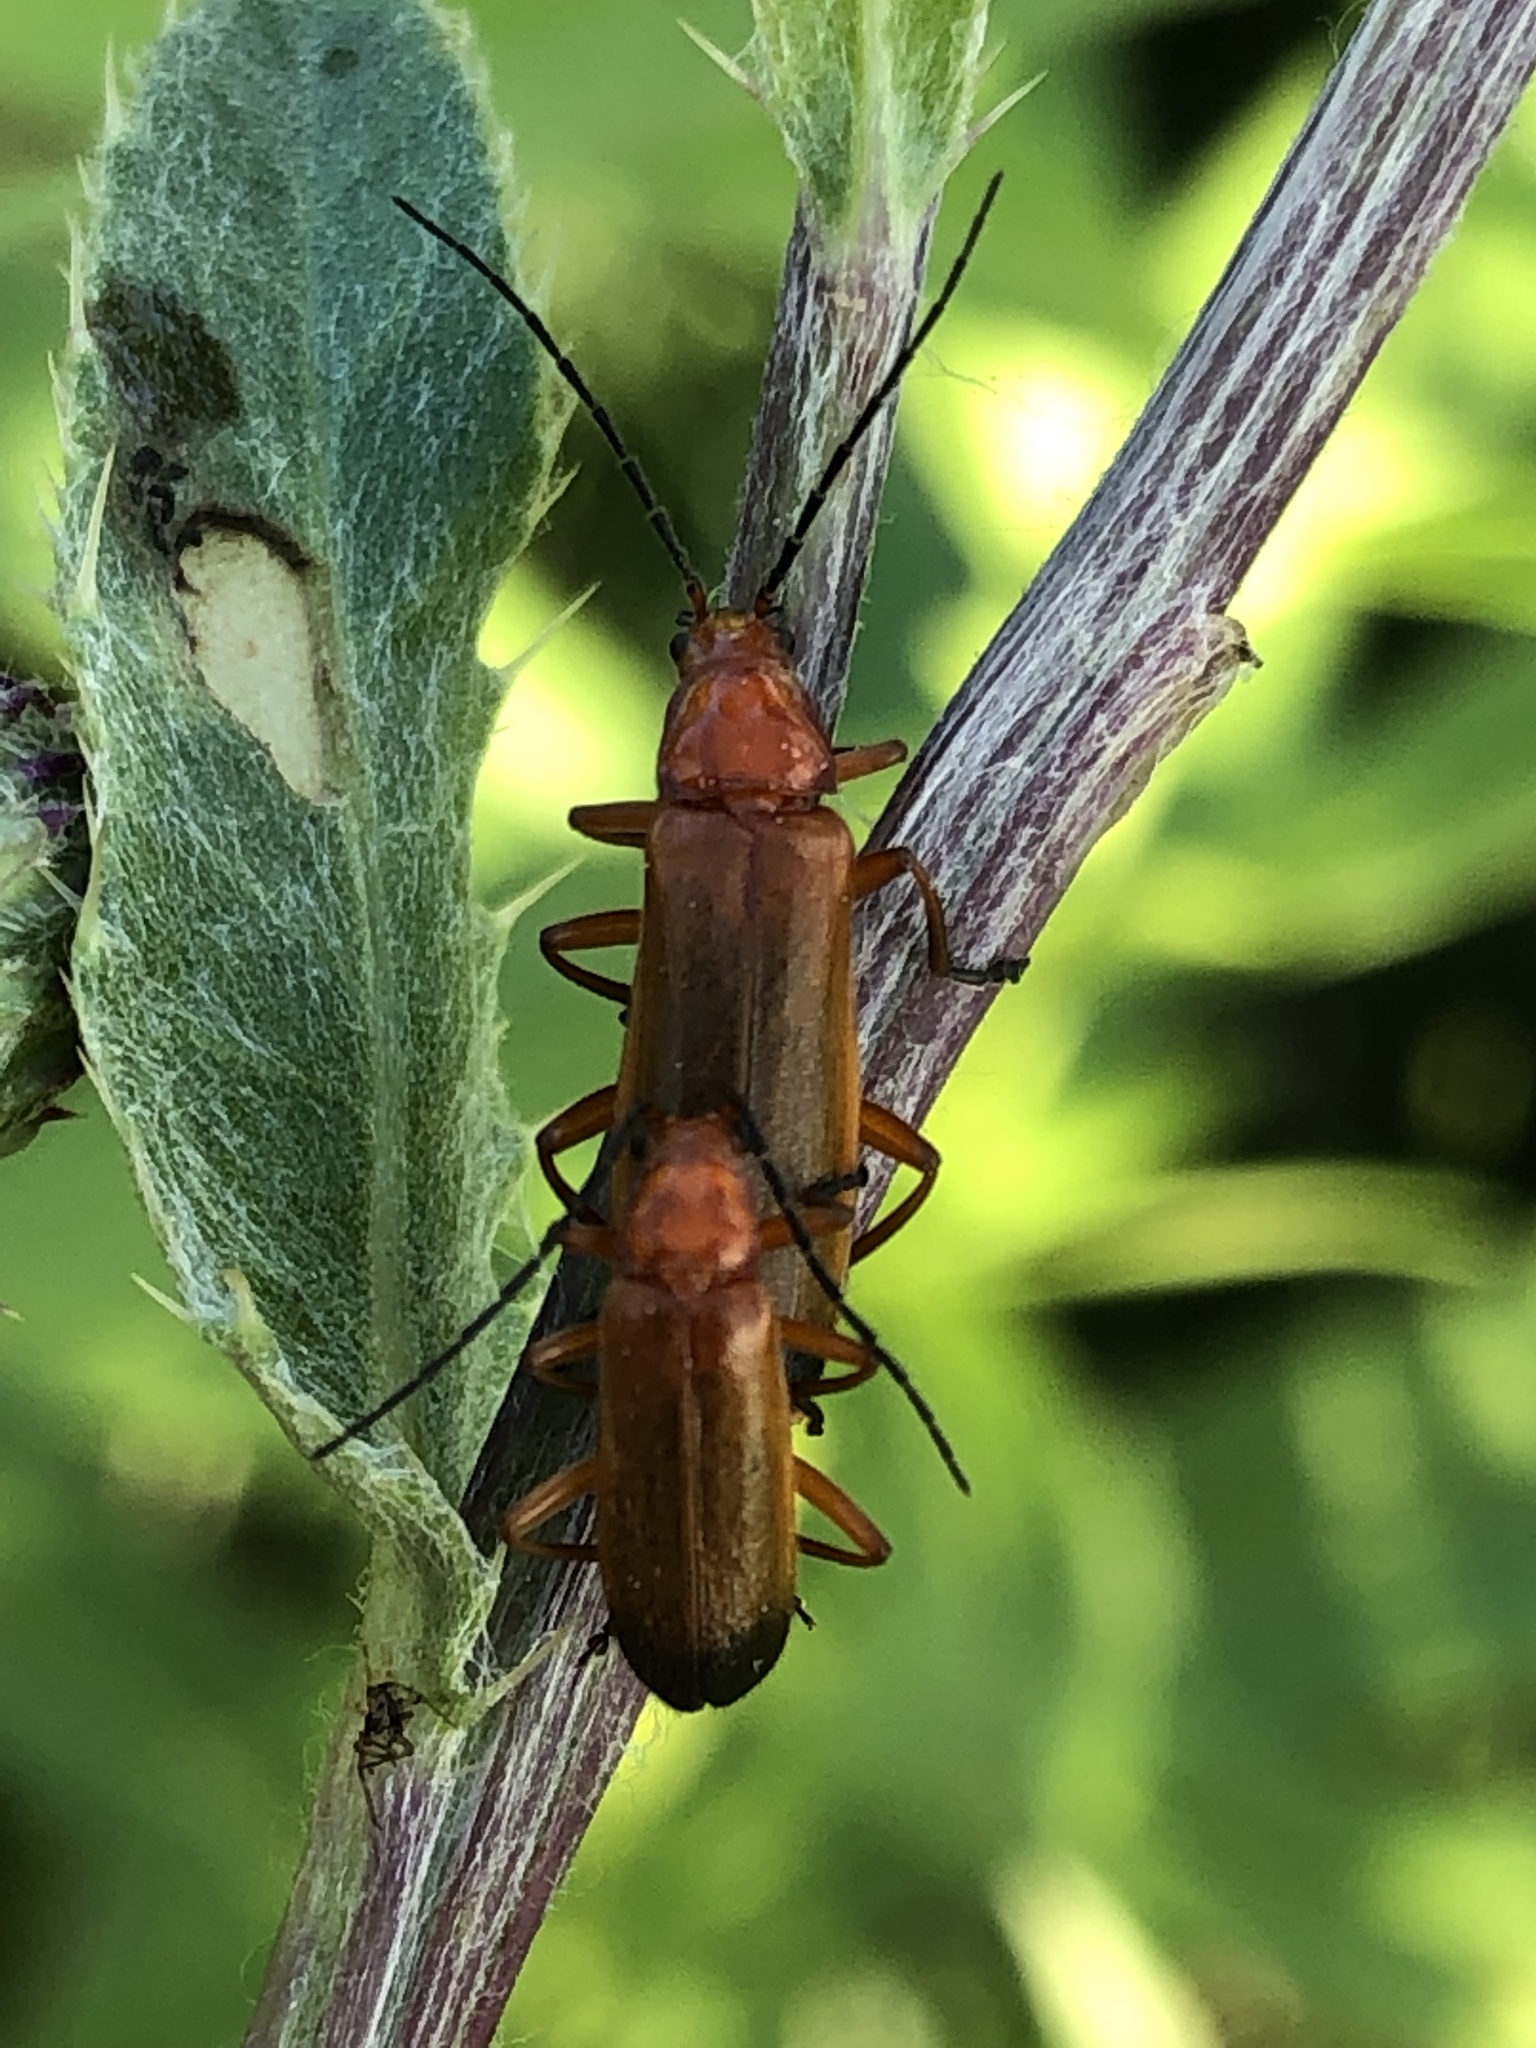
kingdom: Animalia
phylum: Arthropoda
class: Insecta
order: Coleoptera
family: Cantharidae
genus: Rhagonycha
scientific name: Rhagonycha fulva
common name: Common red soldier beetle
